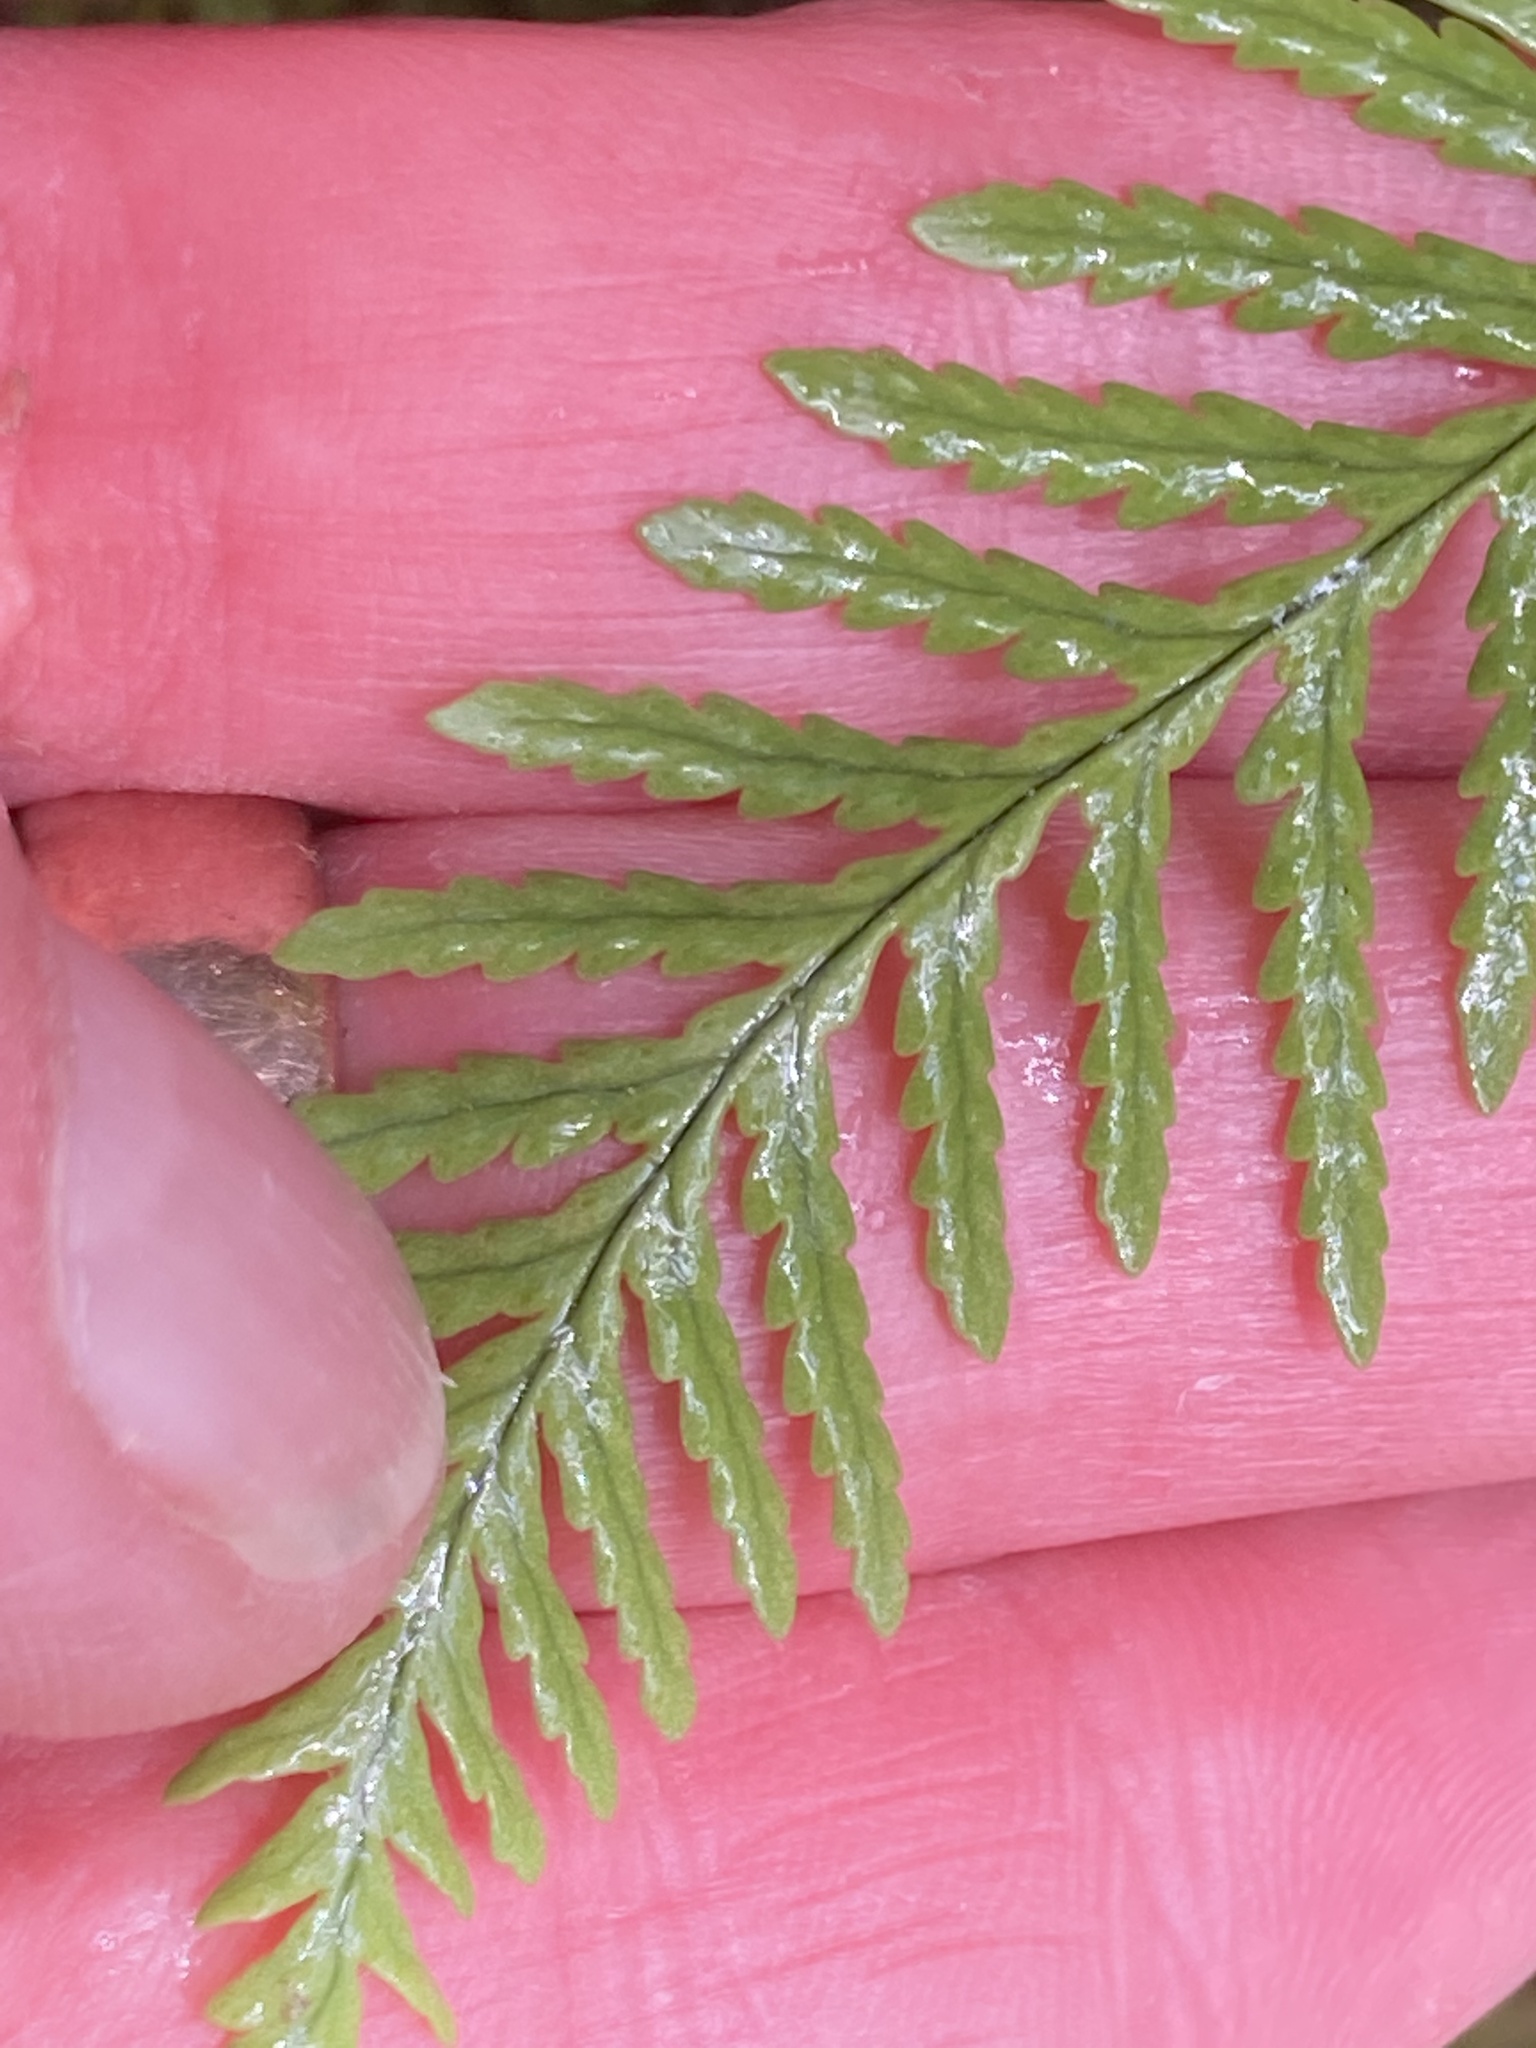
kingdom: Plantae
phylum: Tracheophyta
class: Polypodiopsida
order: Polypodiales
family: Polypodiaceae
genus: Notogrammitis
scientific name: Notogrammitis heterophylla
